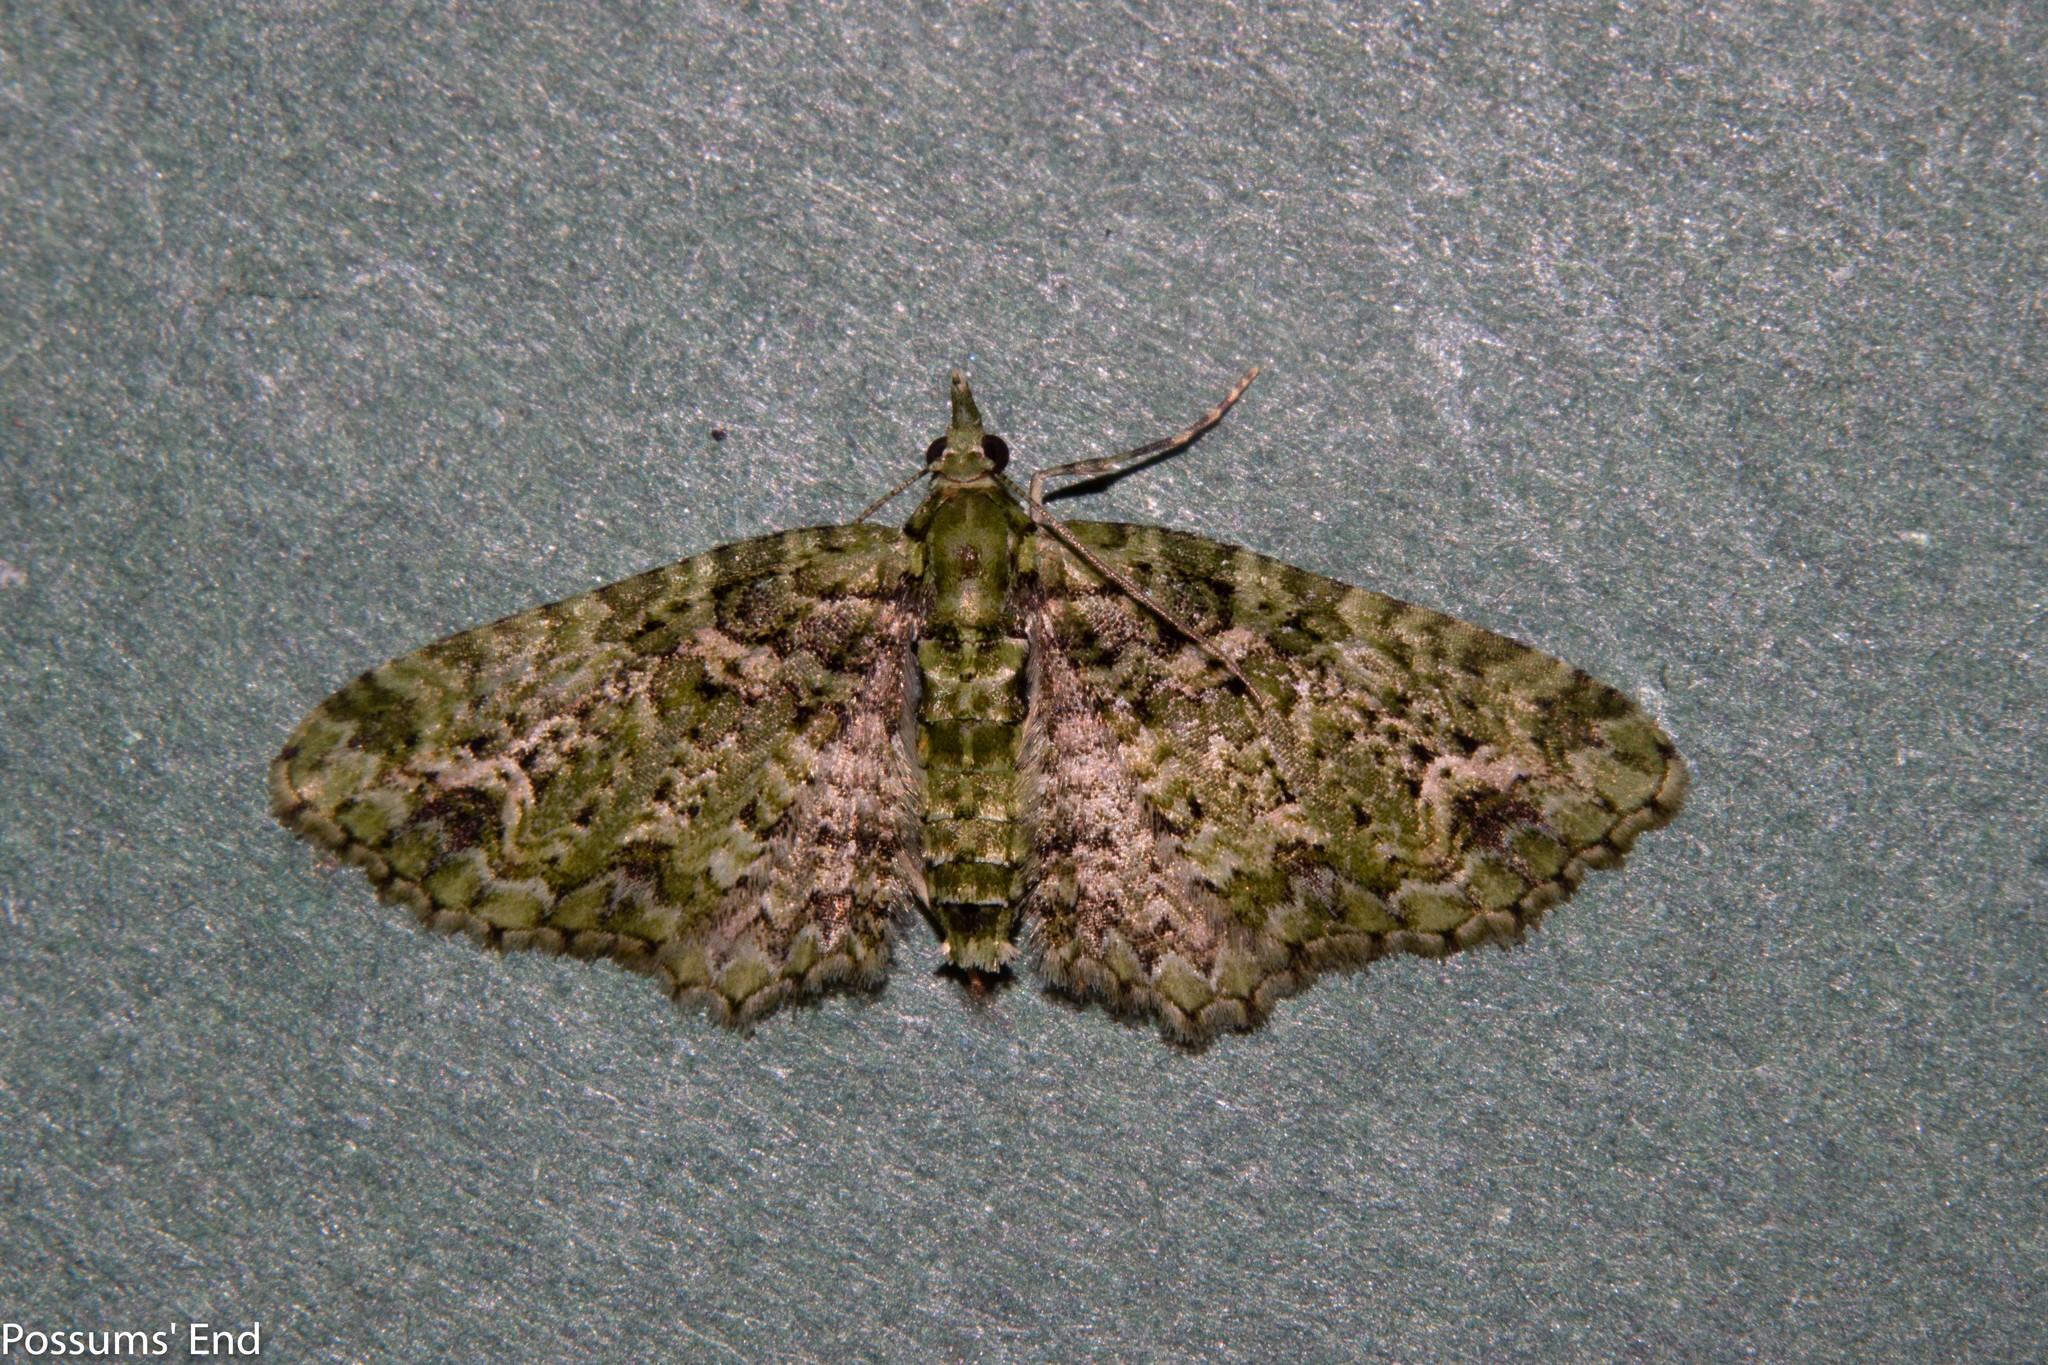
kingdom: Animalia
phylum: Arthropoda
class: Insecta
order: Lepidoptera
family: Geometridae
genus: Pasiphila
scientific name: Pasiphila muscosata
